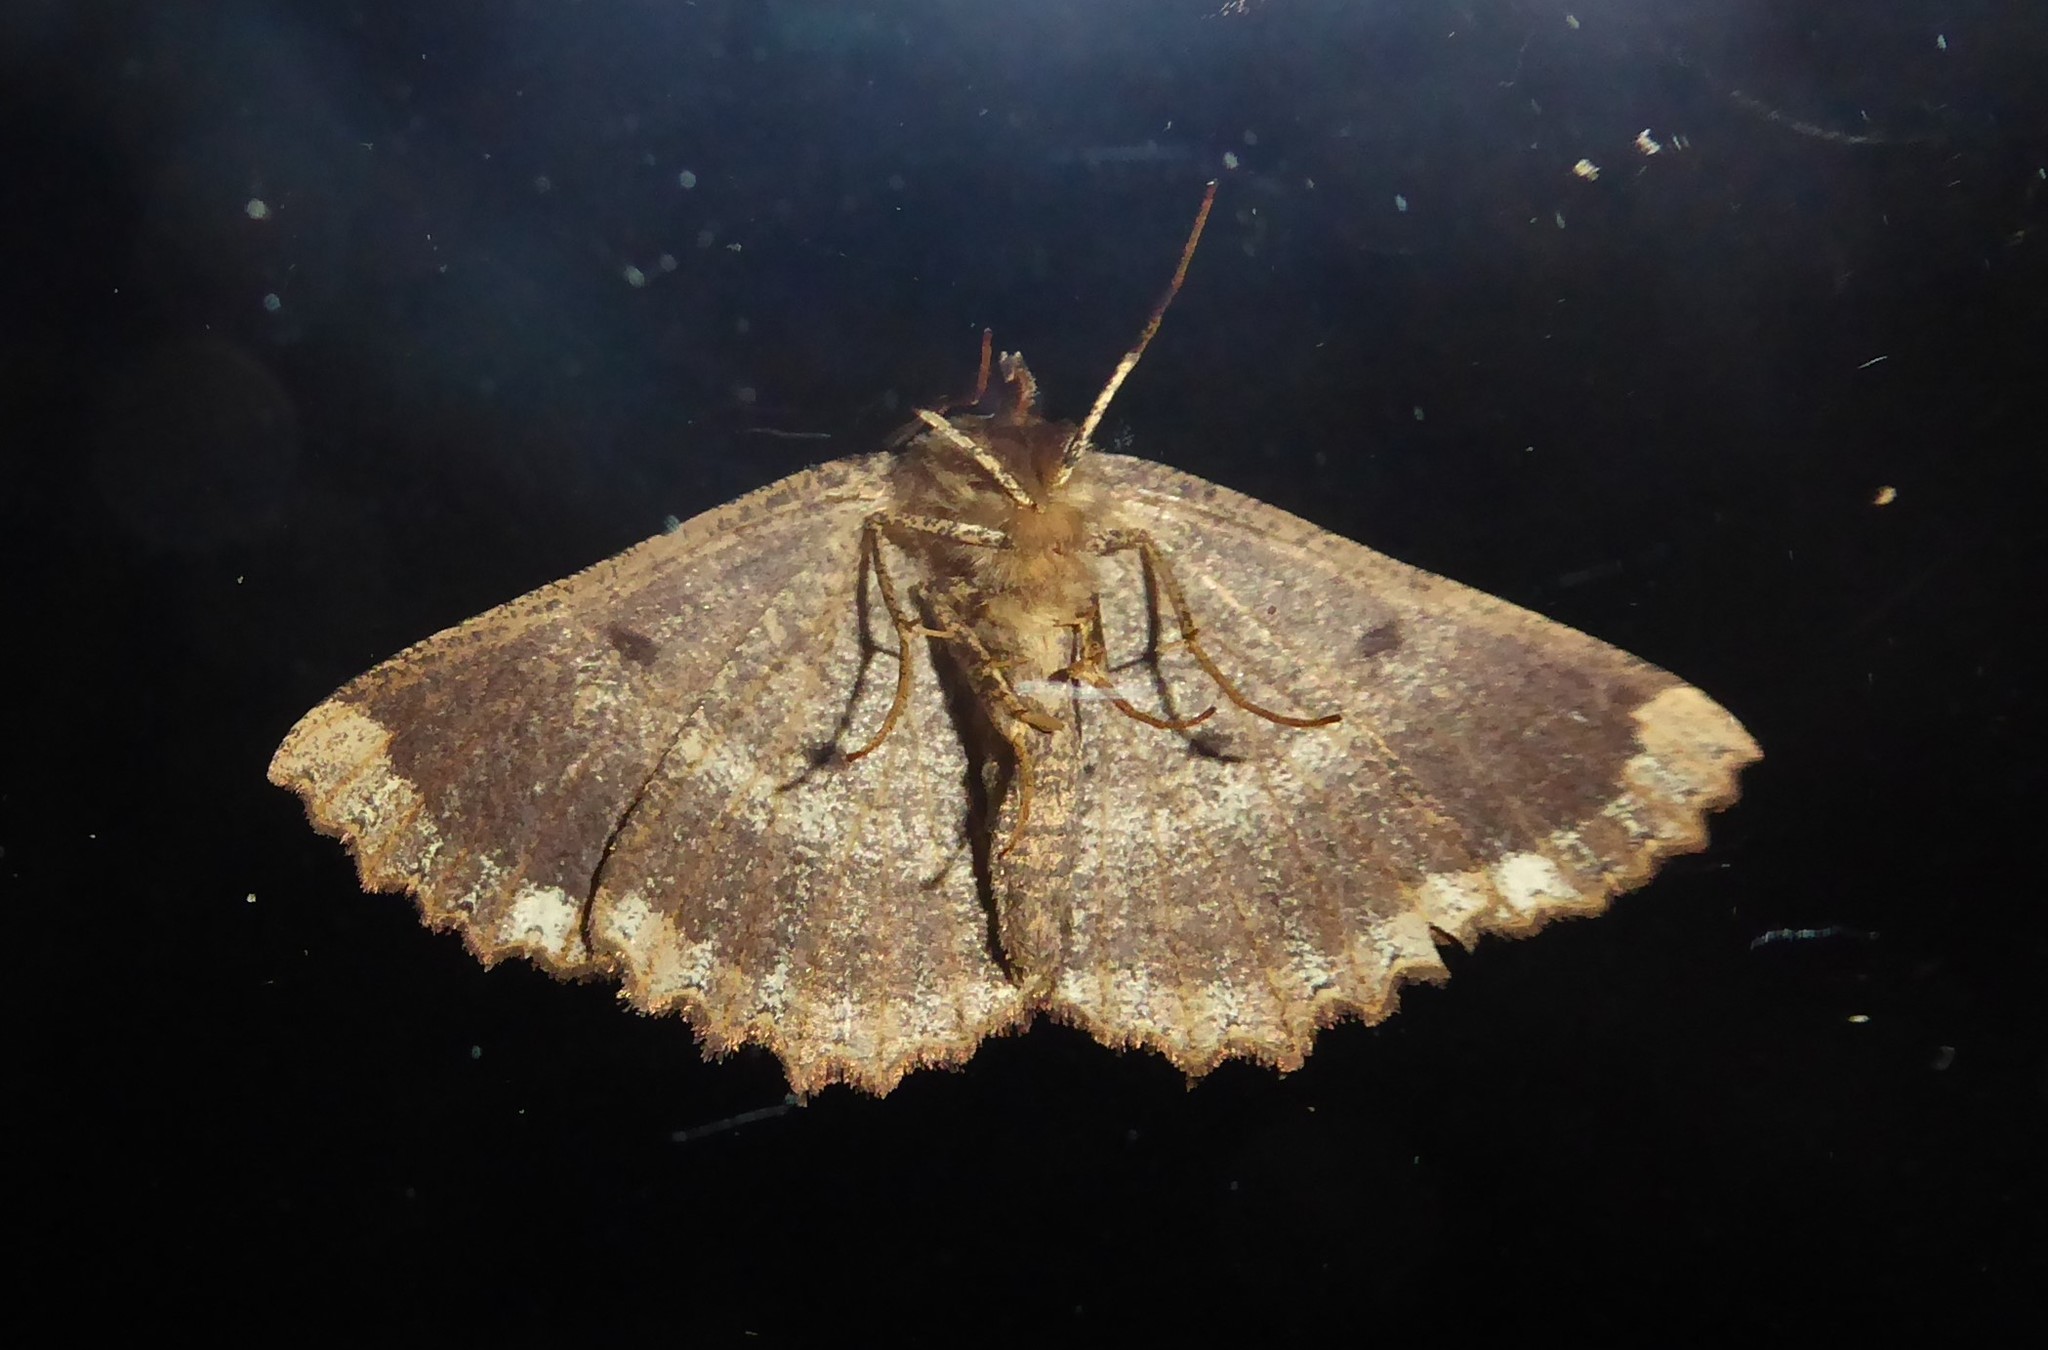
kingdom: Animalia
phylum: Arthropoda
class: Insecta
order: Lepidoptera
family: Geometridae
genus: Gellonia
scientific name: Gellonia dejectaria
